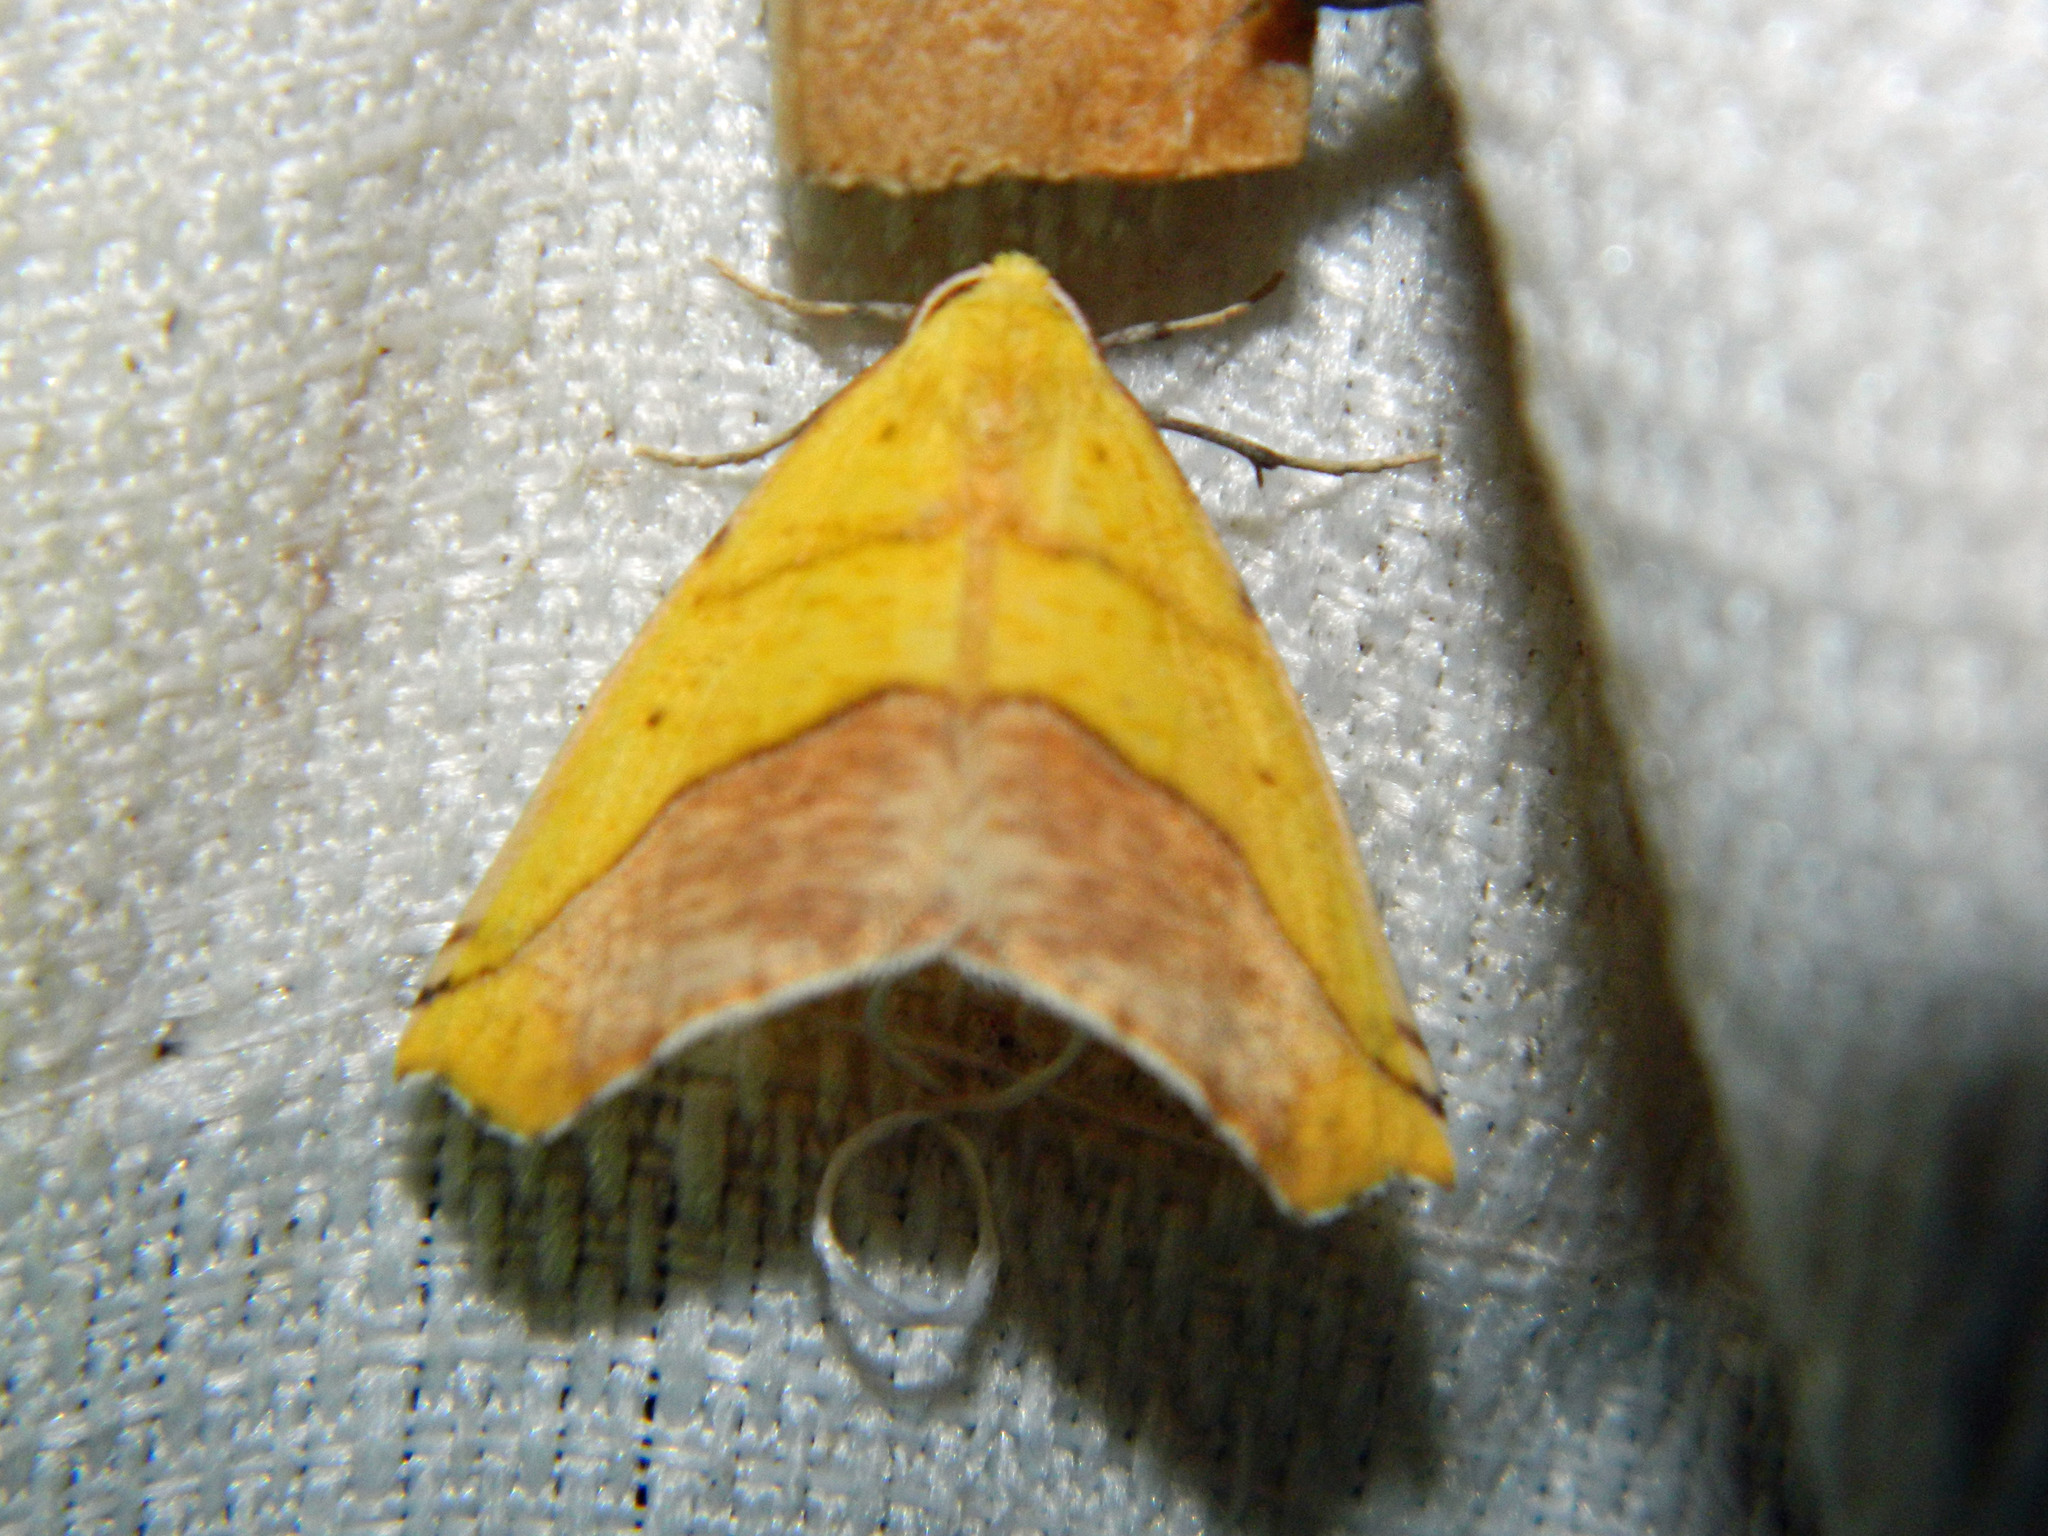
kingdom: Animalia
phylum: Arthropoda
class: Insecta
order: Lepidoptera
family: Geometridae
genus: Sicya
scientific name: Sicya macularia
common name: Sharp-lined yellow
